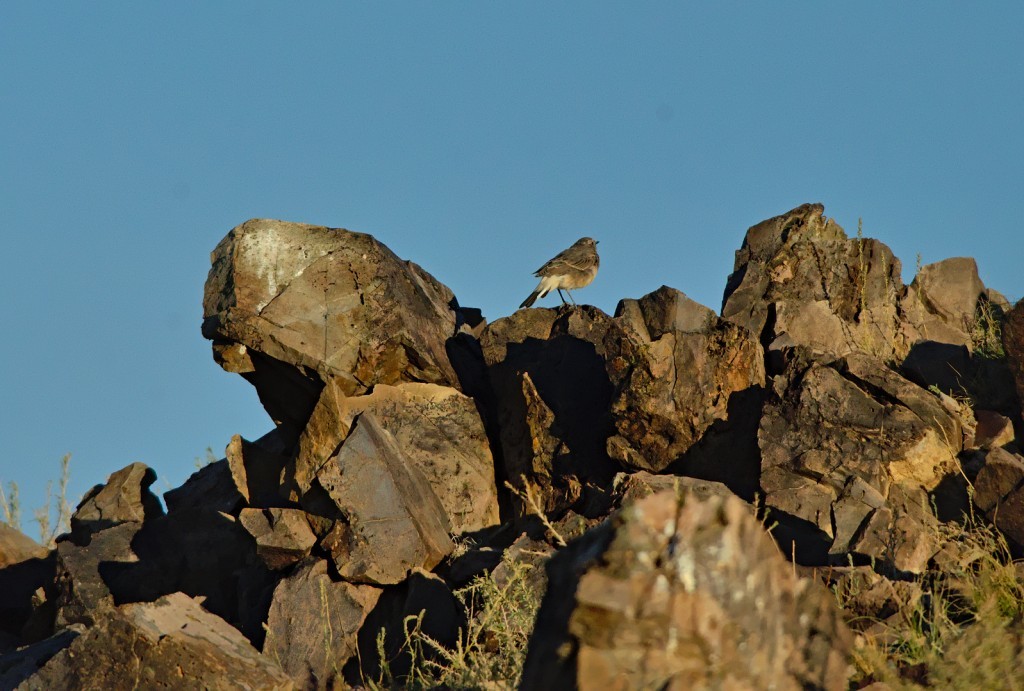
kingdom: Animalia
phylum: Chordata
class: Aves
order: Passeriformes
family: Muscicapidae
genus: Oenanthe
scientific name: Oenanthe deserti
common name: Desert wheatear
